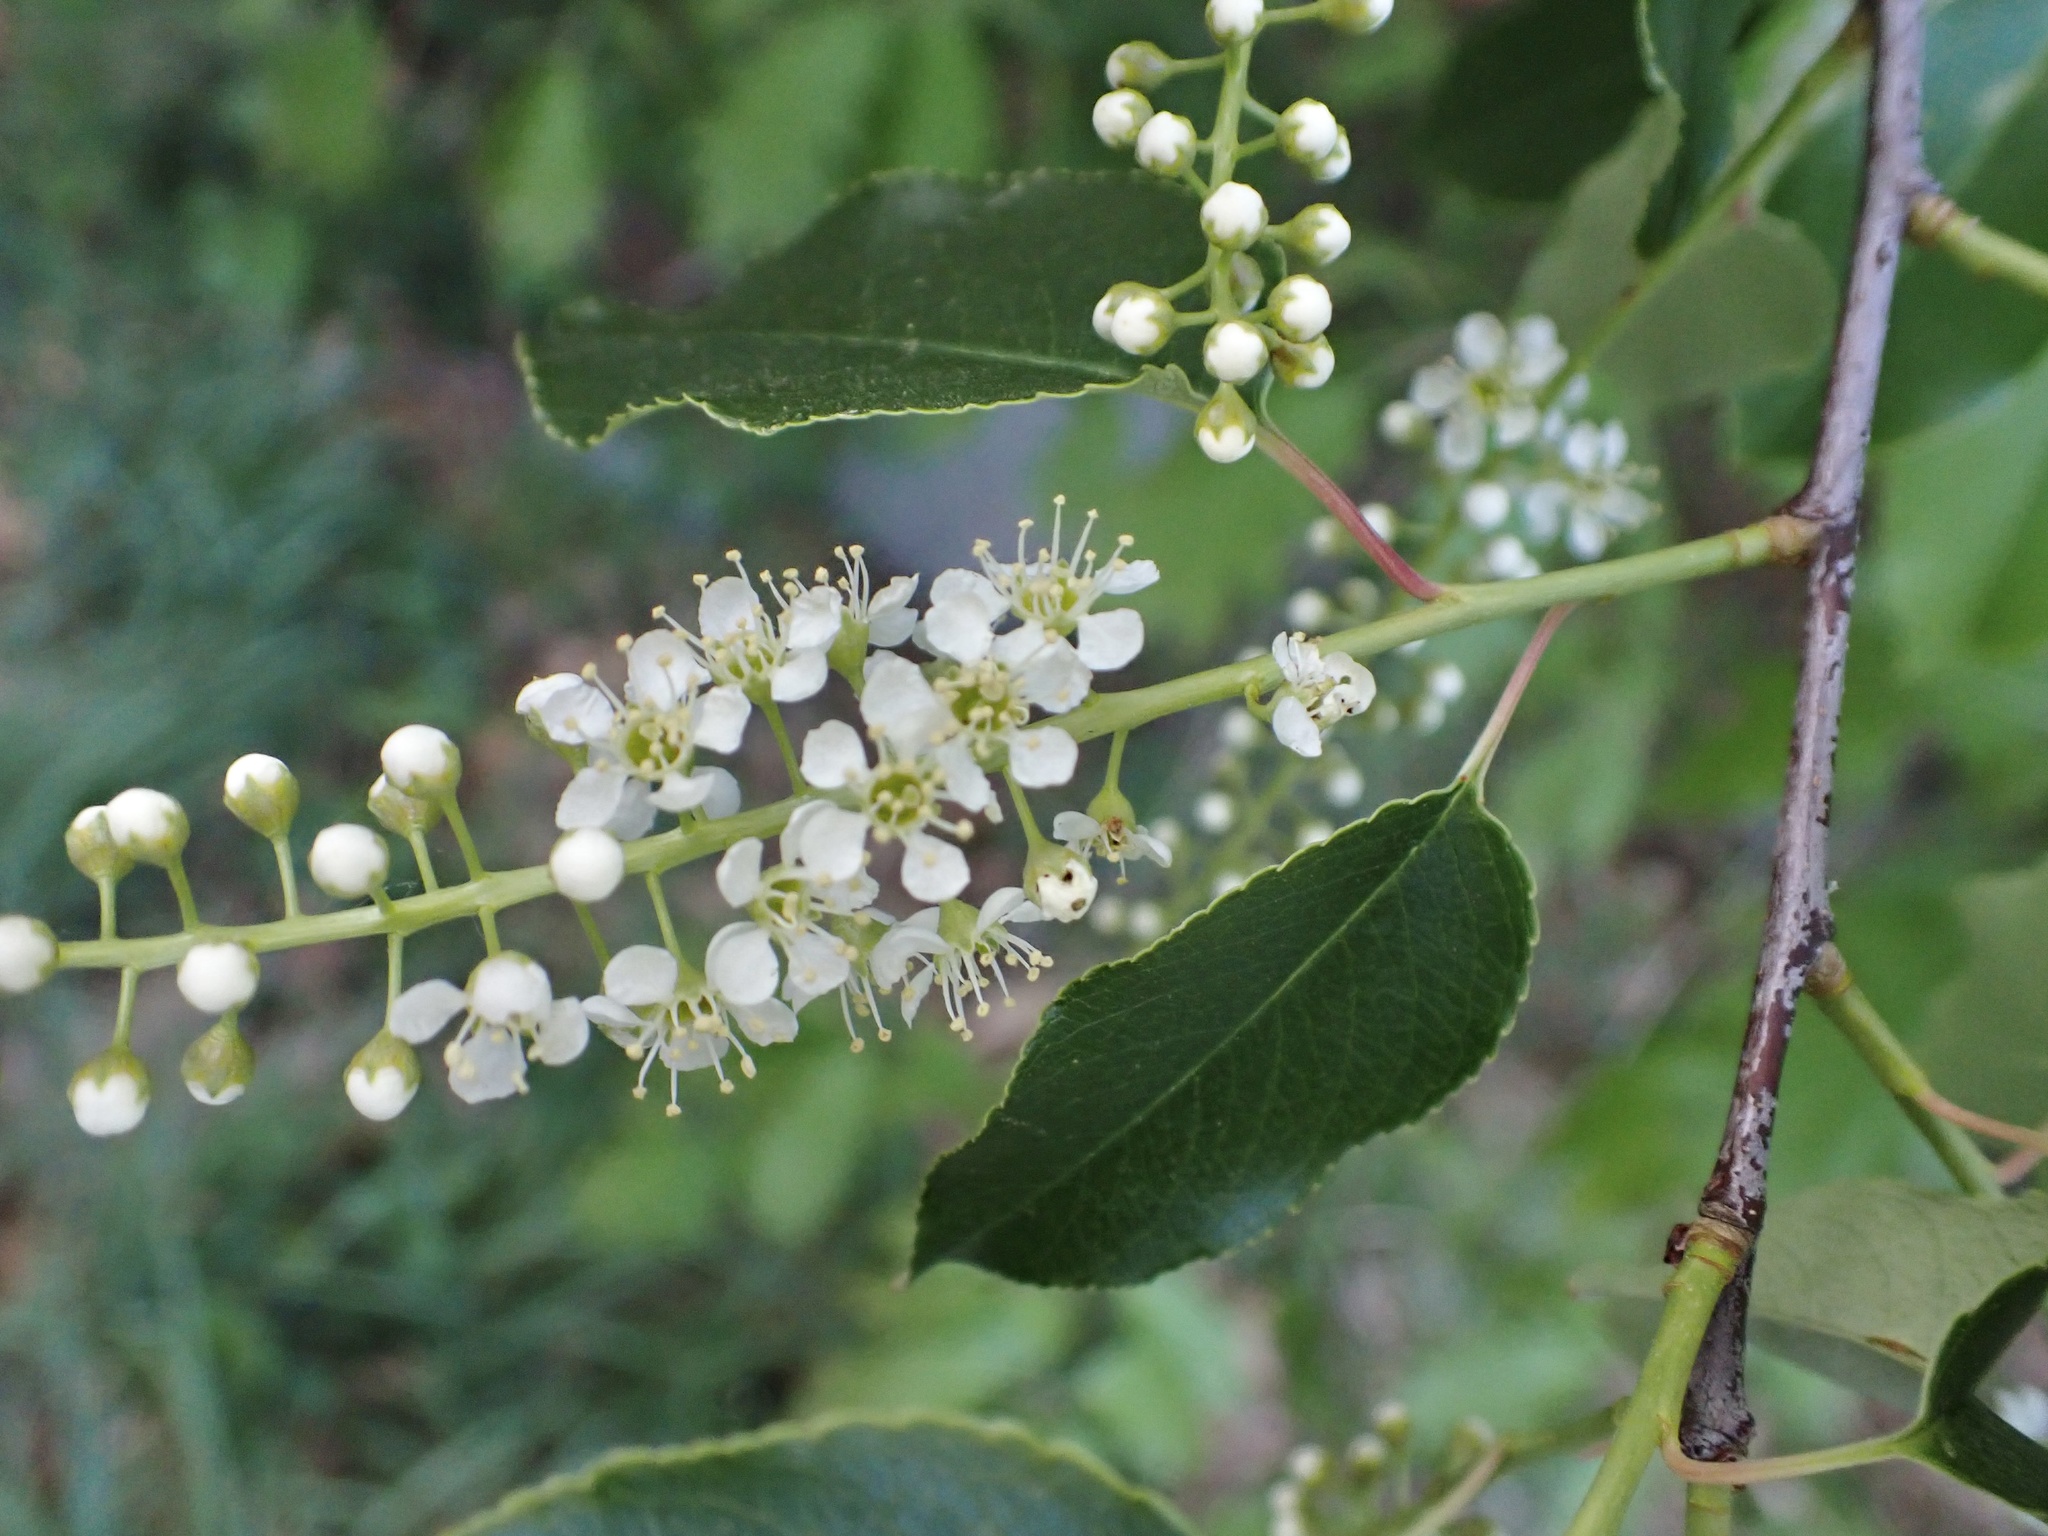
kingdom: Plantae
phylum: Tracheophyta
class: Magnoliopsida
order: Rosales
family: Rosaceae
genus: Prunus
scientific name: Prunus serotina
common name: Black cherry
